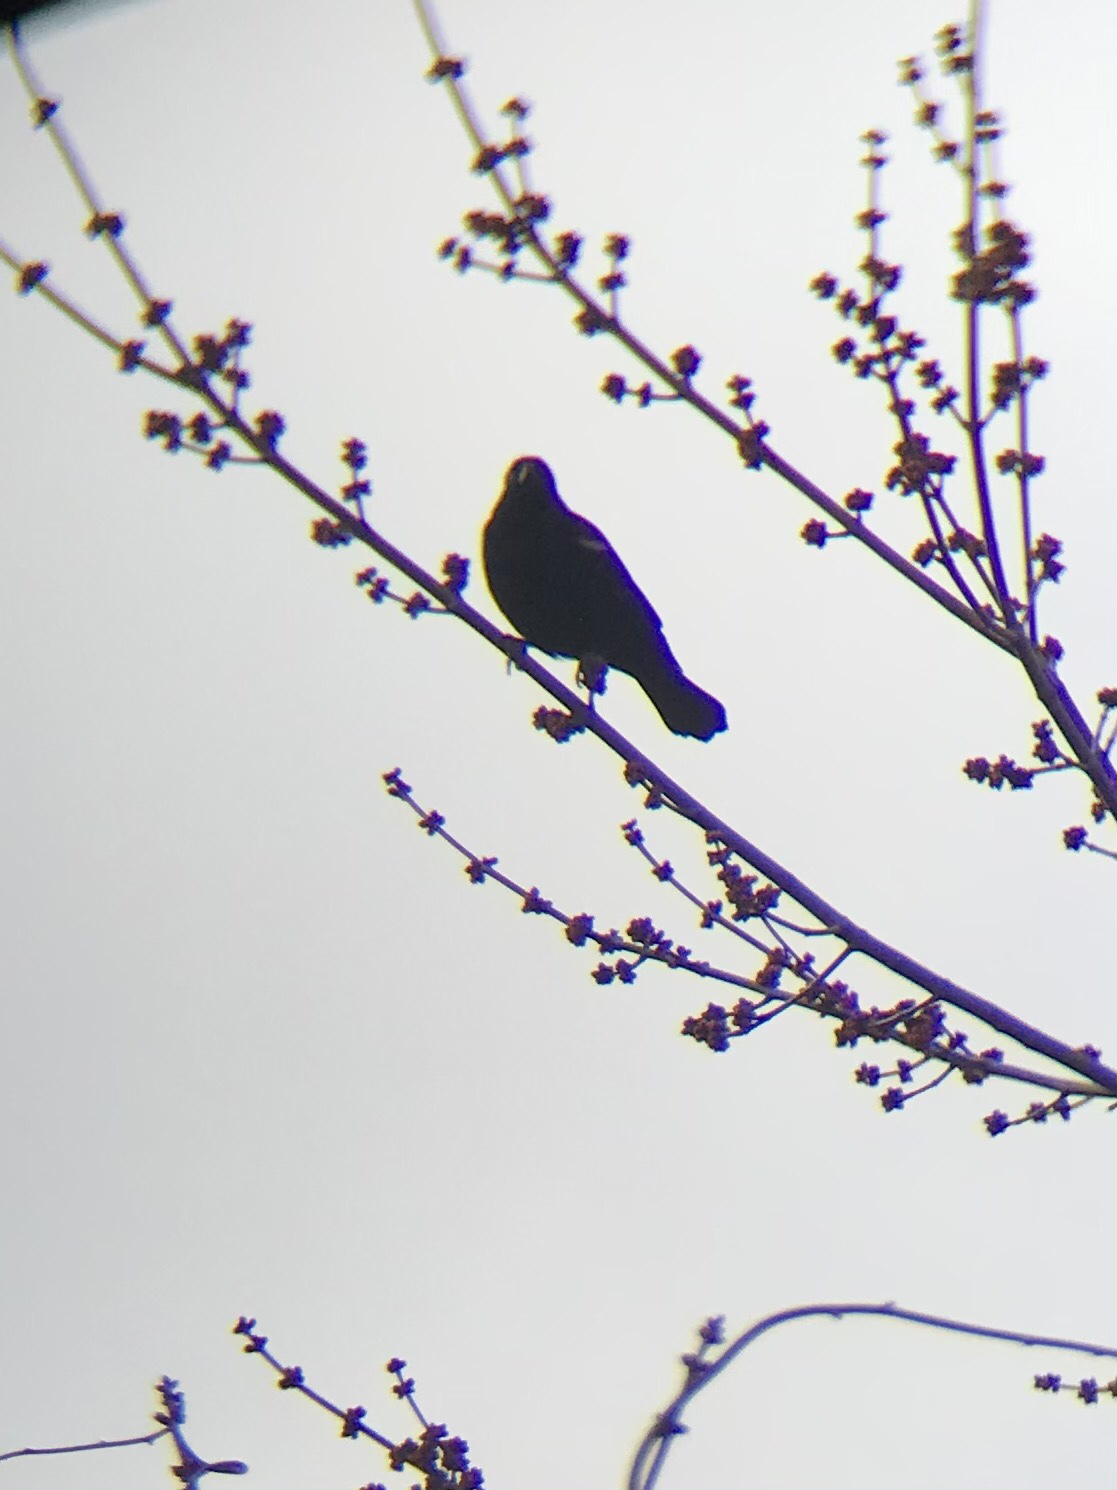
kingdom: Animalia
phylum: Chordata
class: Aves
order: Passeriformes
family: Icteridae
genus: Agelaius
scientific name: Agelaius phoeniceus
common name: Red-winged blackbird
